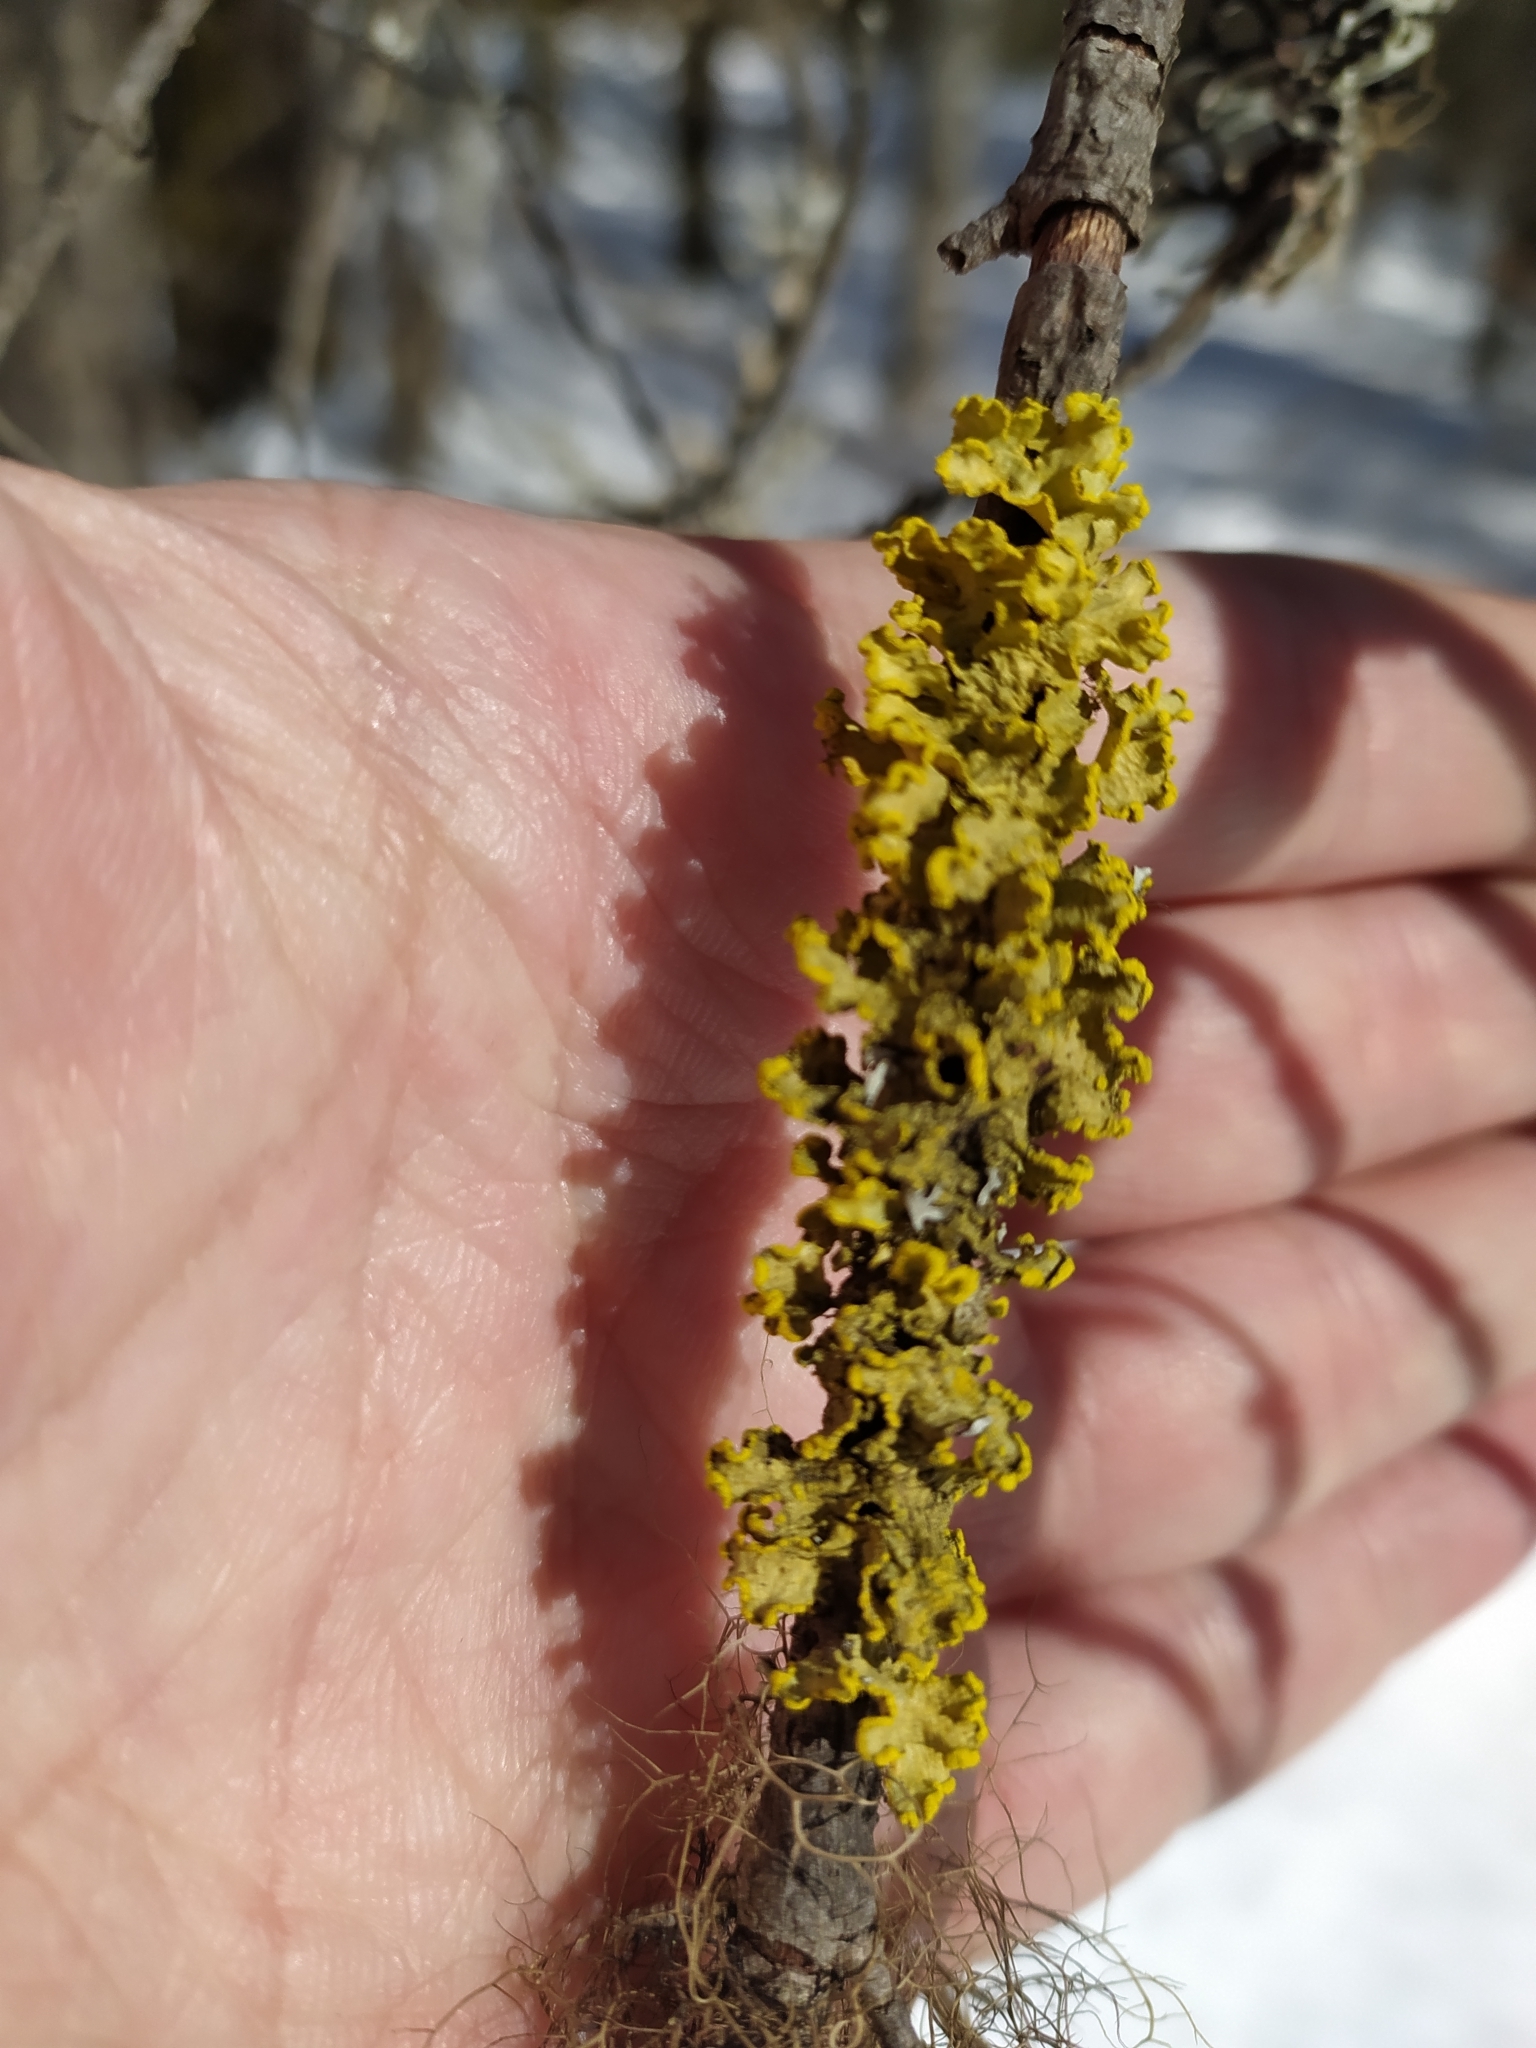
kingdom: Fungi
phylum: Ascomycota
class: Lecanoromycetes
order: Lecanorales
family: Parmeliaceae
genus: Vulpicida
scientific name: Vulpicida pinastri
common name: Powdered sunshine lichen
